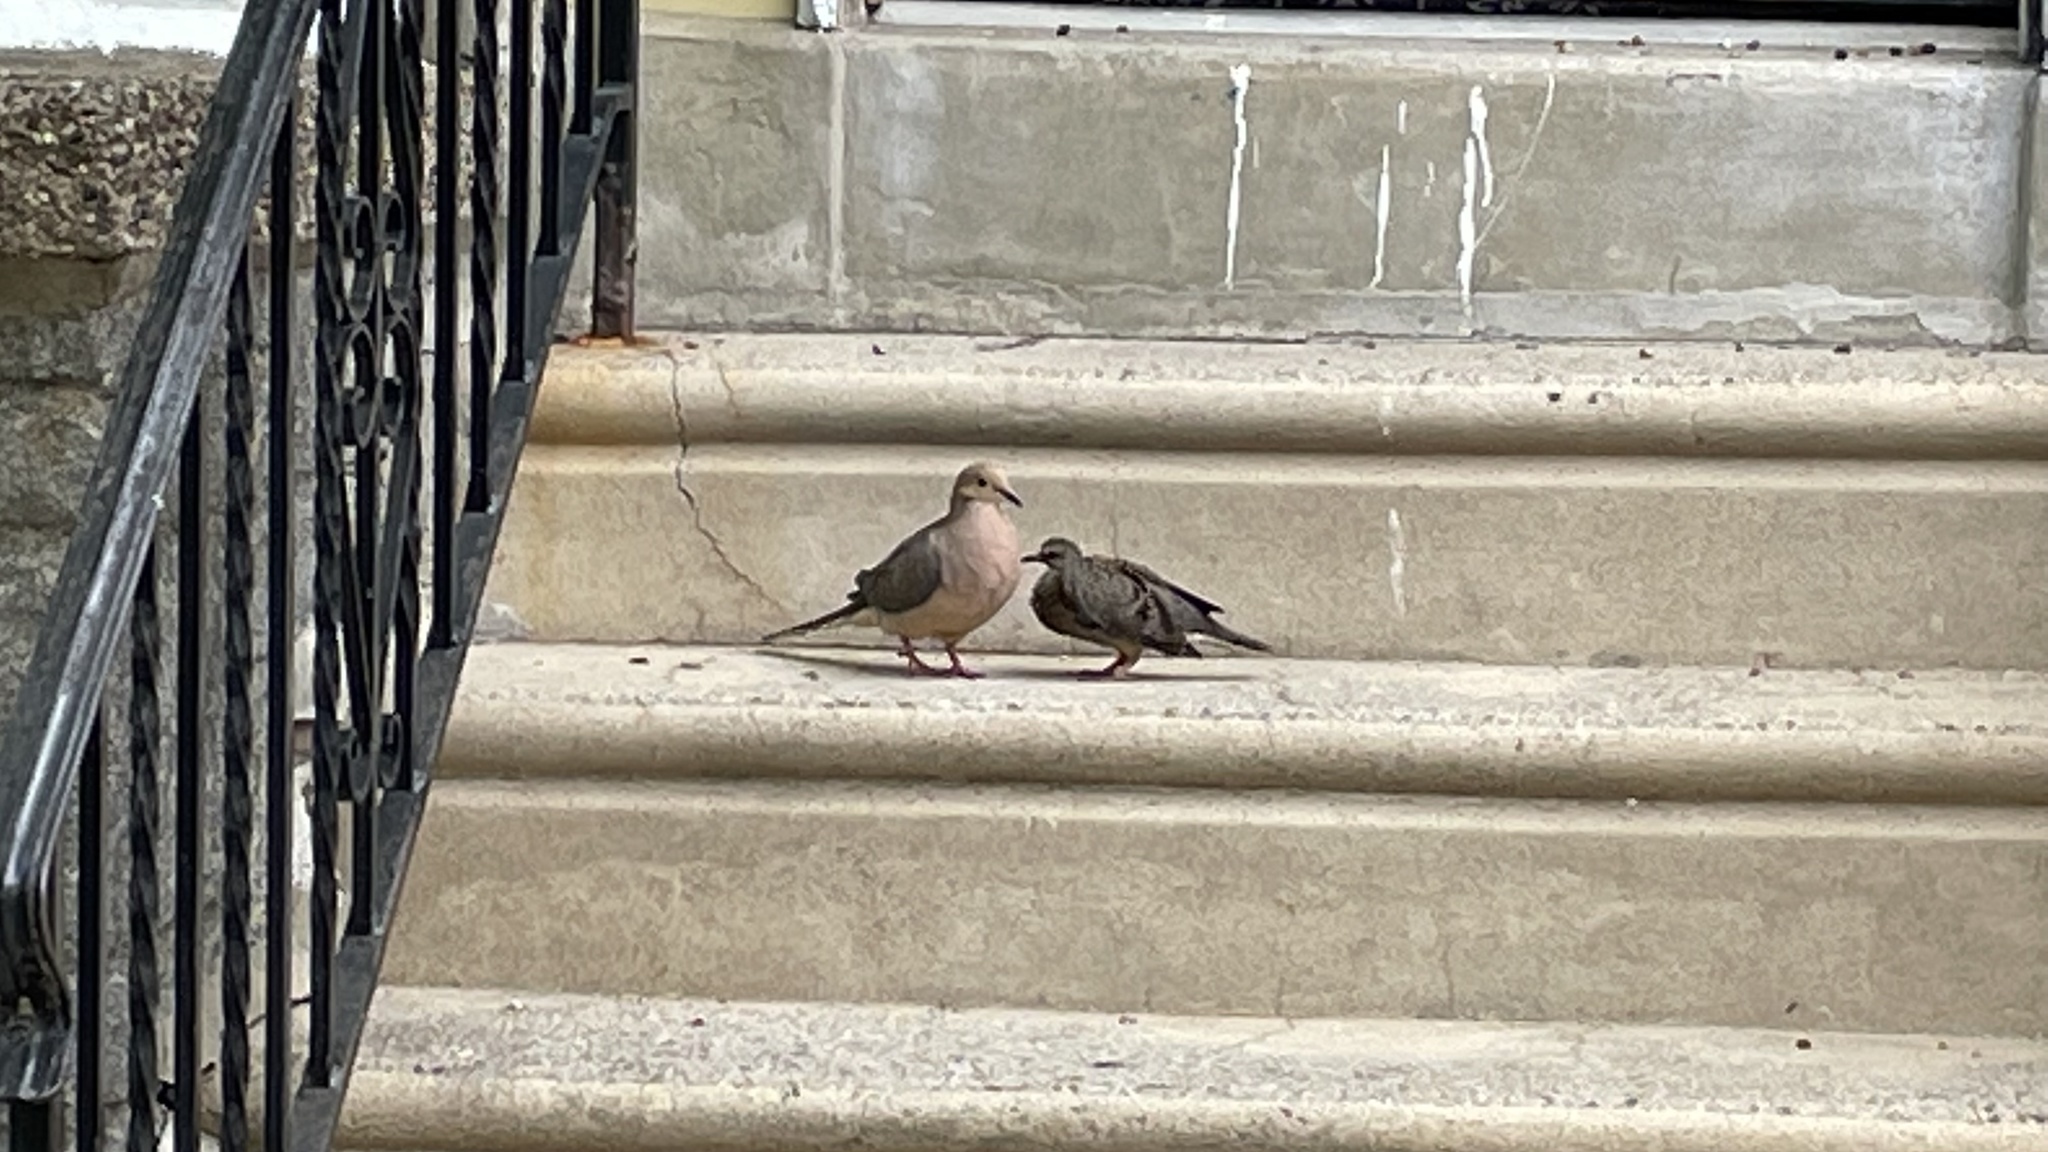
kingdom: Animalia
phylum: Chordata
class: Aves
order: Columbiformes
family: Columbidae
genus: Zenaida
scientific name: Zenaida macroura
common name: Mourning dove
